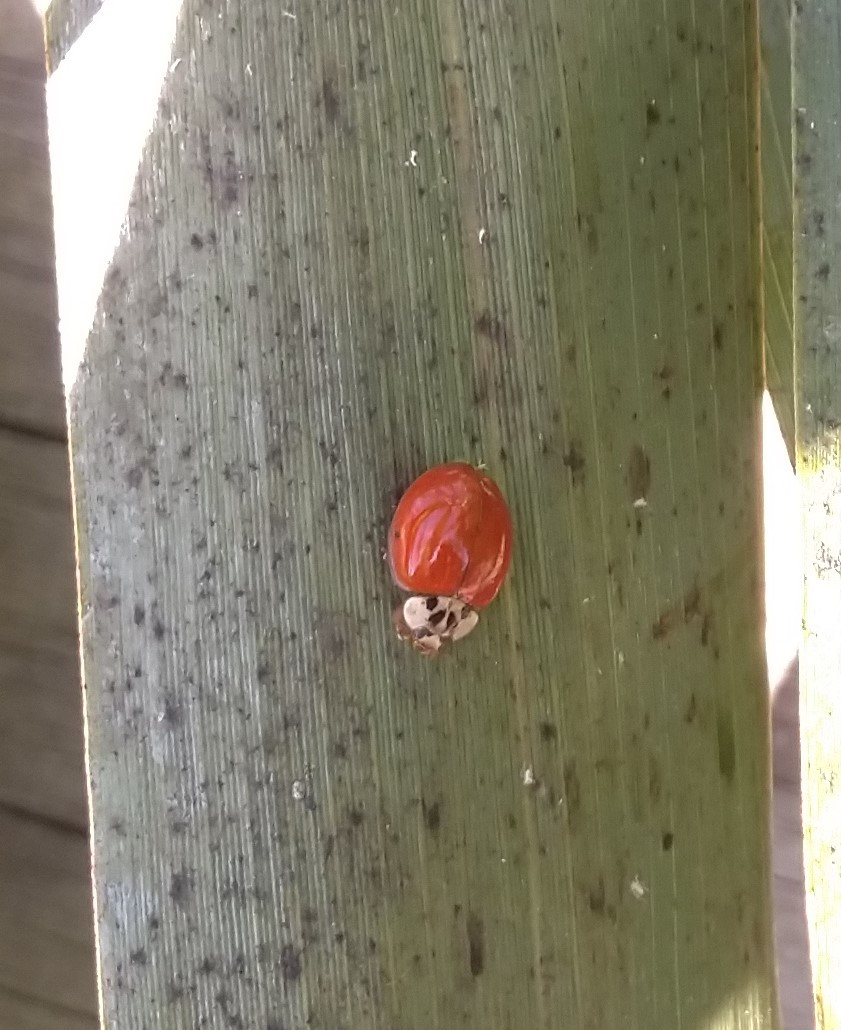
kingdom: Animalia
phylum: Arthropoda
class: Insecta
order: Coleoptera
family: Coccinellidae
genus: Harmonia
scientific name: Harmonia axyridis
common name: Harlequin ladybird
